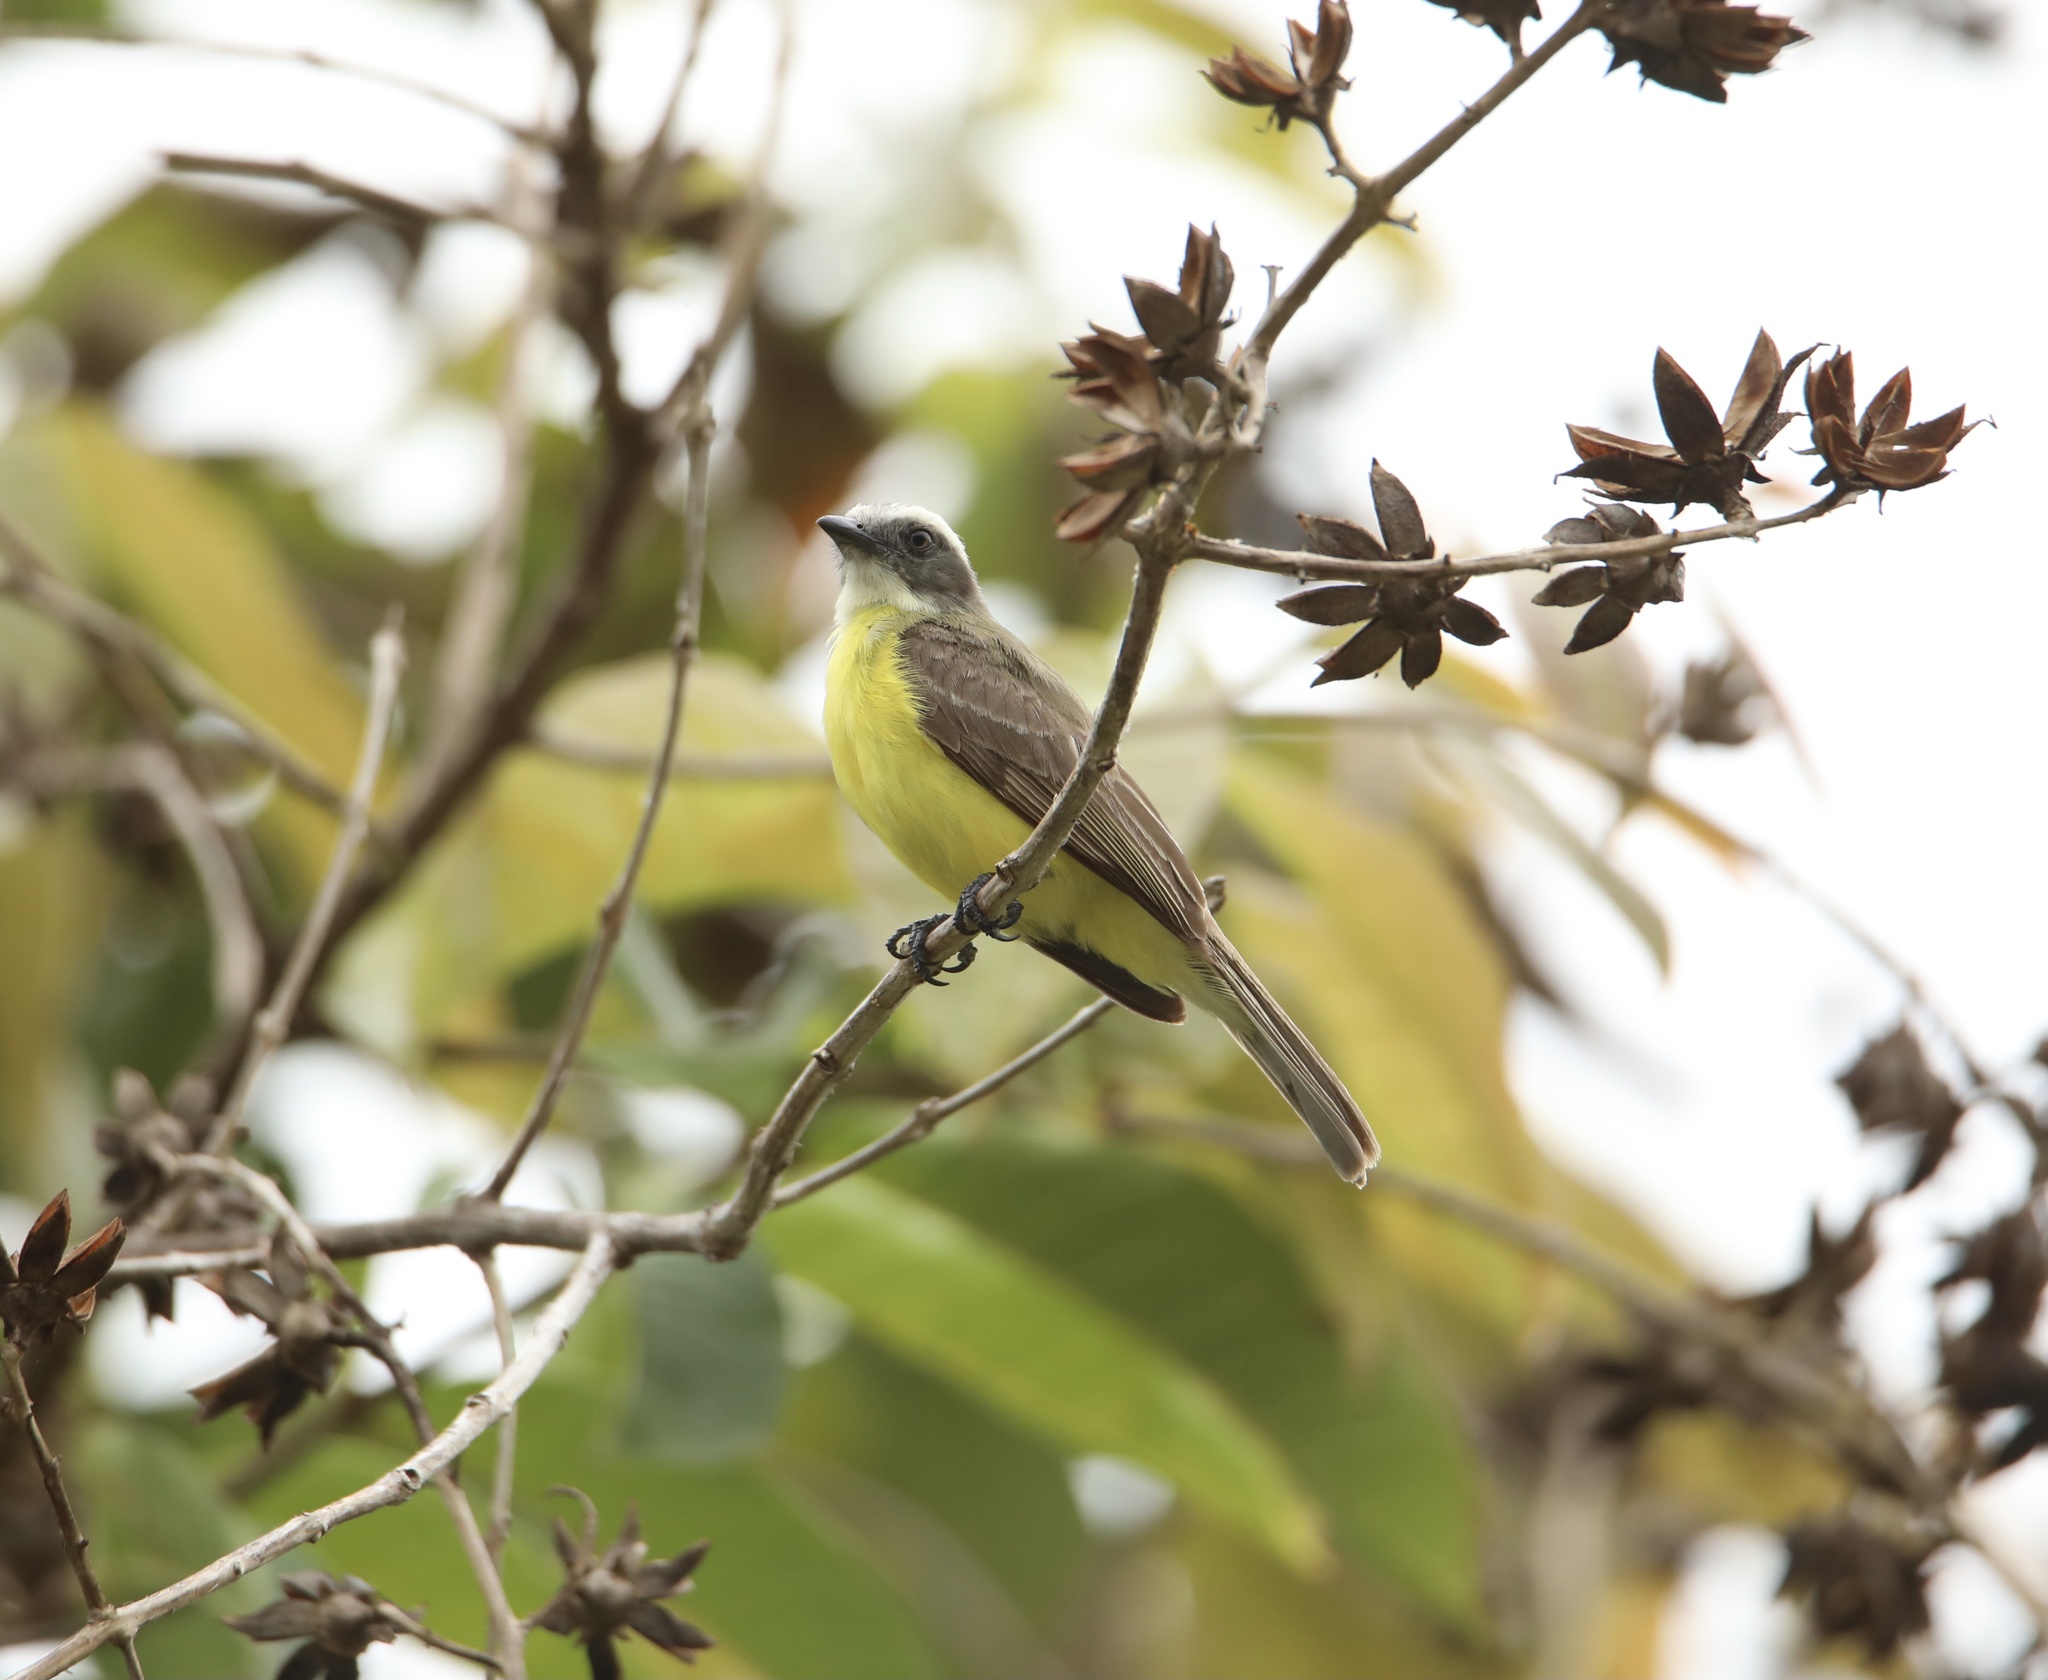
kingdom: Animalia
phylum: Chordata
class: Aves
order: Passeriformes
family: Tyrannidae
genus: Myiozetetes
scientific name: Myiozetetes similis
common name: Social flycatcher
